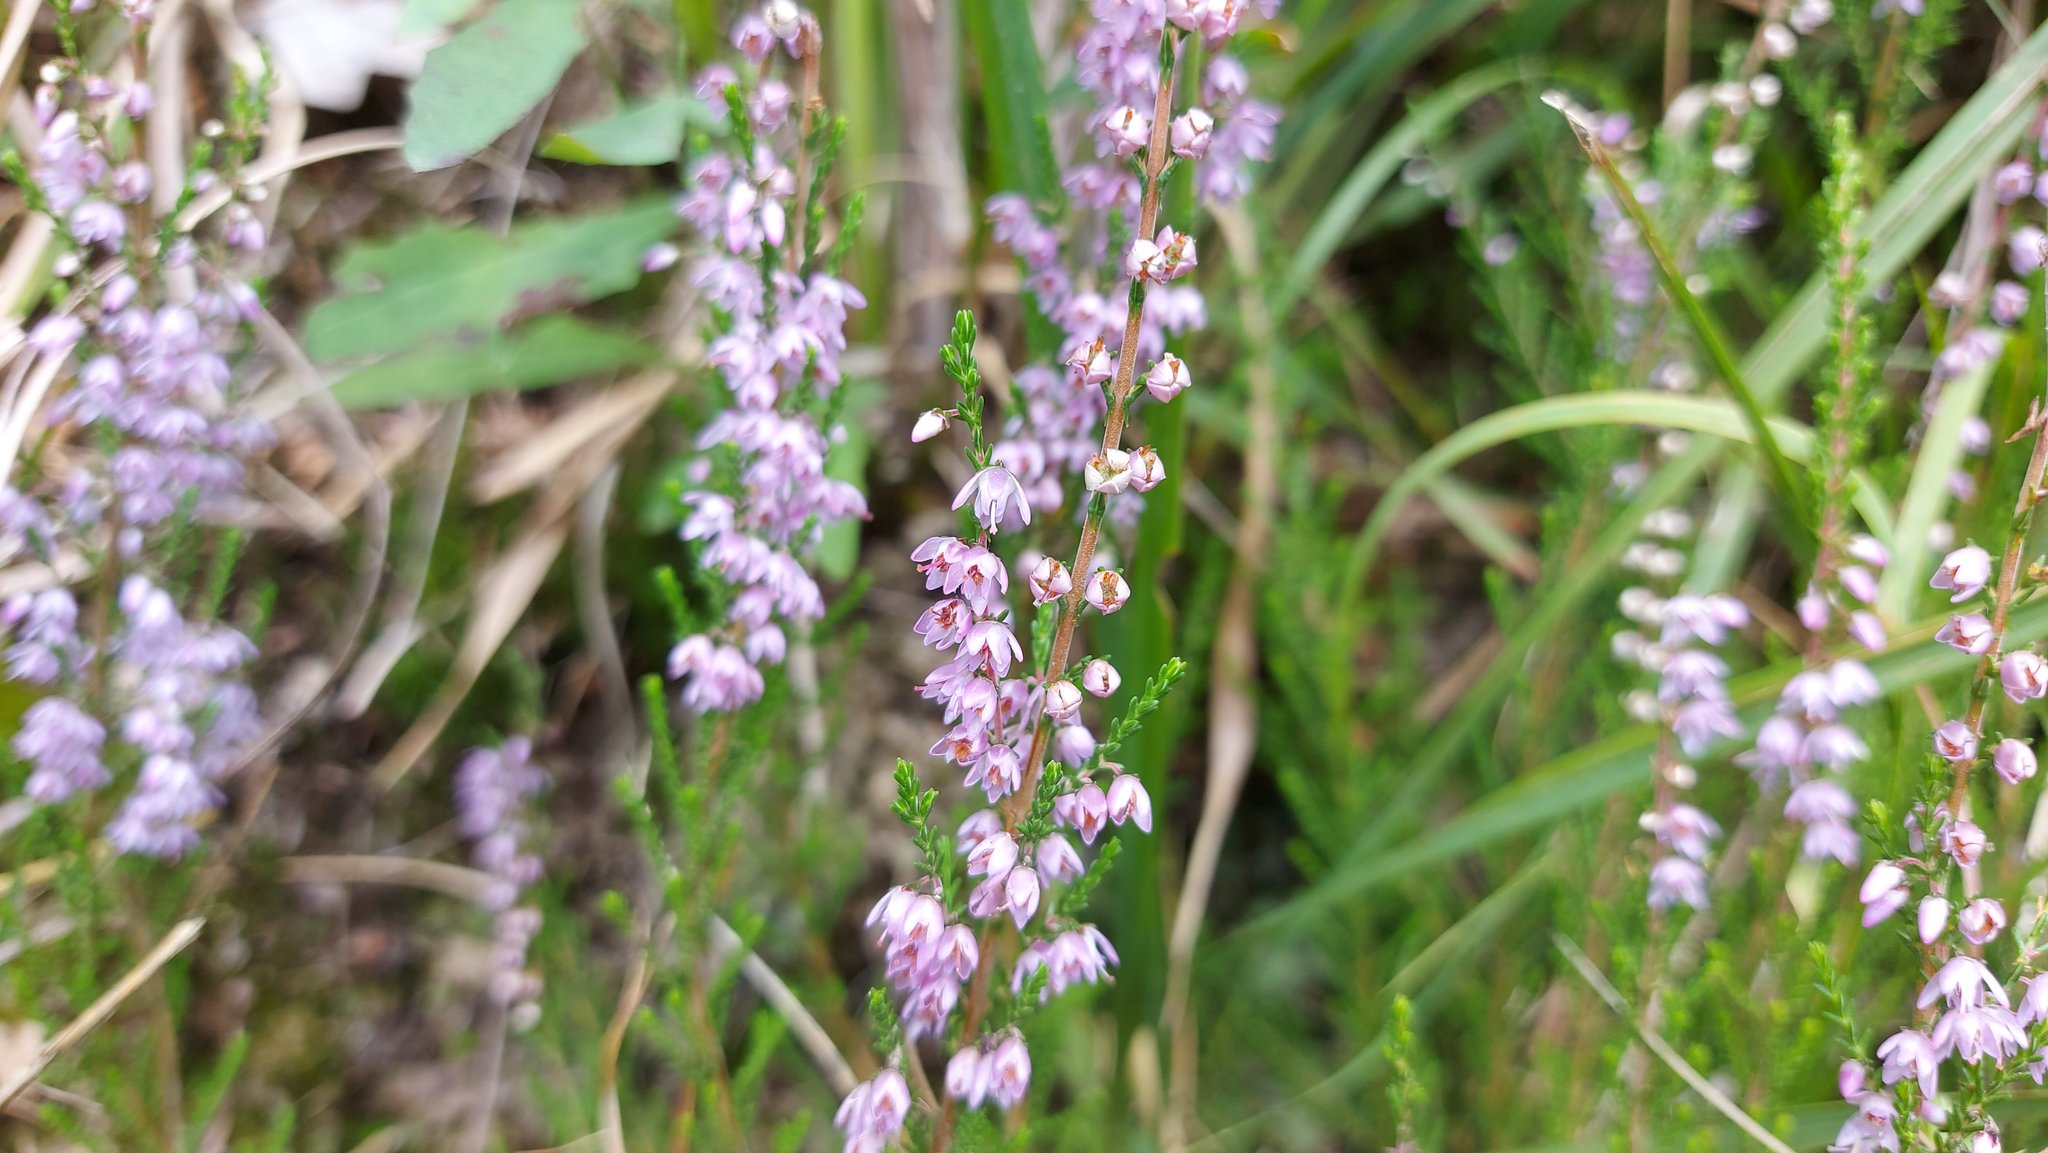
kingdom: Plantae
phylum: Tracheophyta
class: Magnoliopsida
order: Ericales
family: Ericaceae
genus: Calluna
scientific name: Calluna vulgaris
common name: Heather
